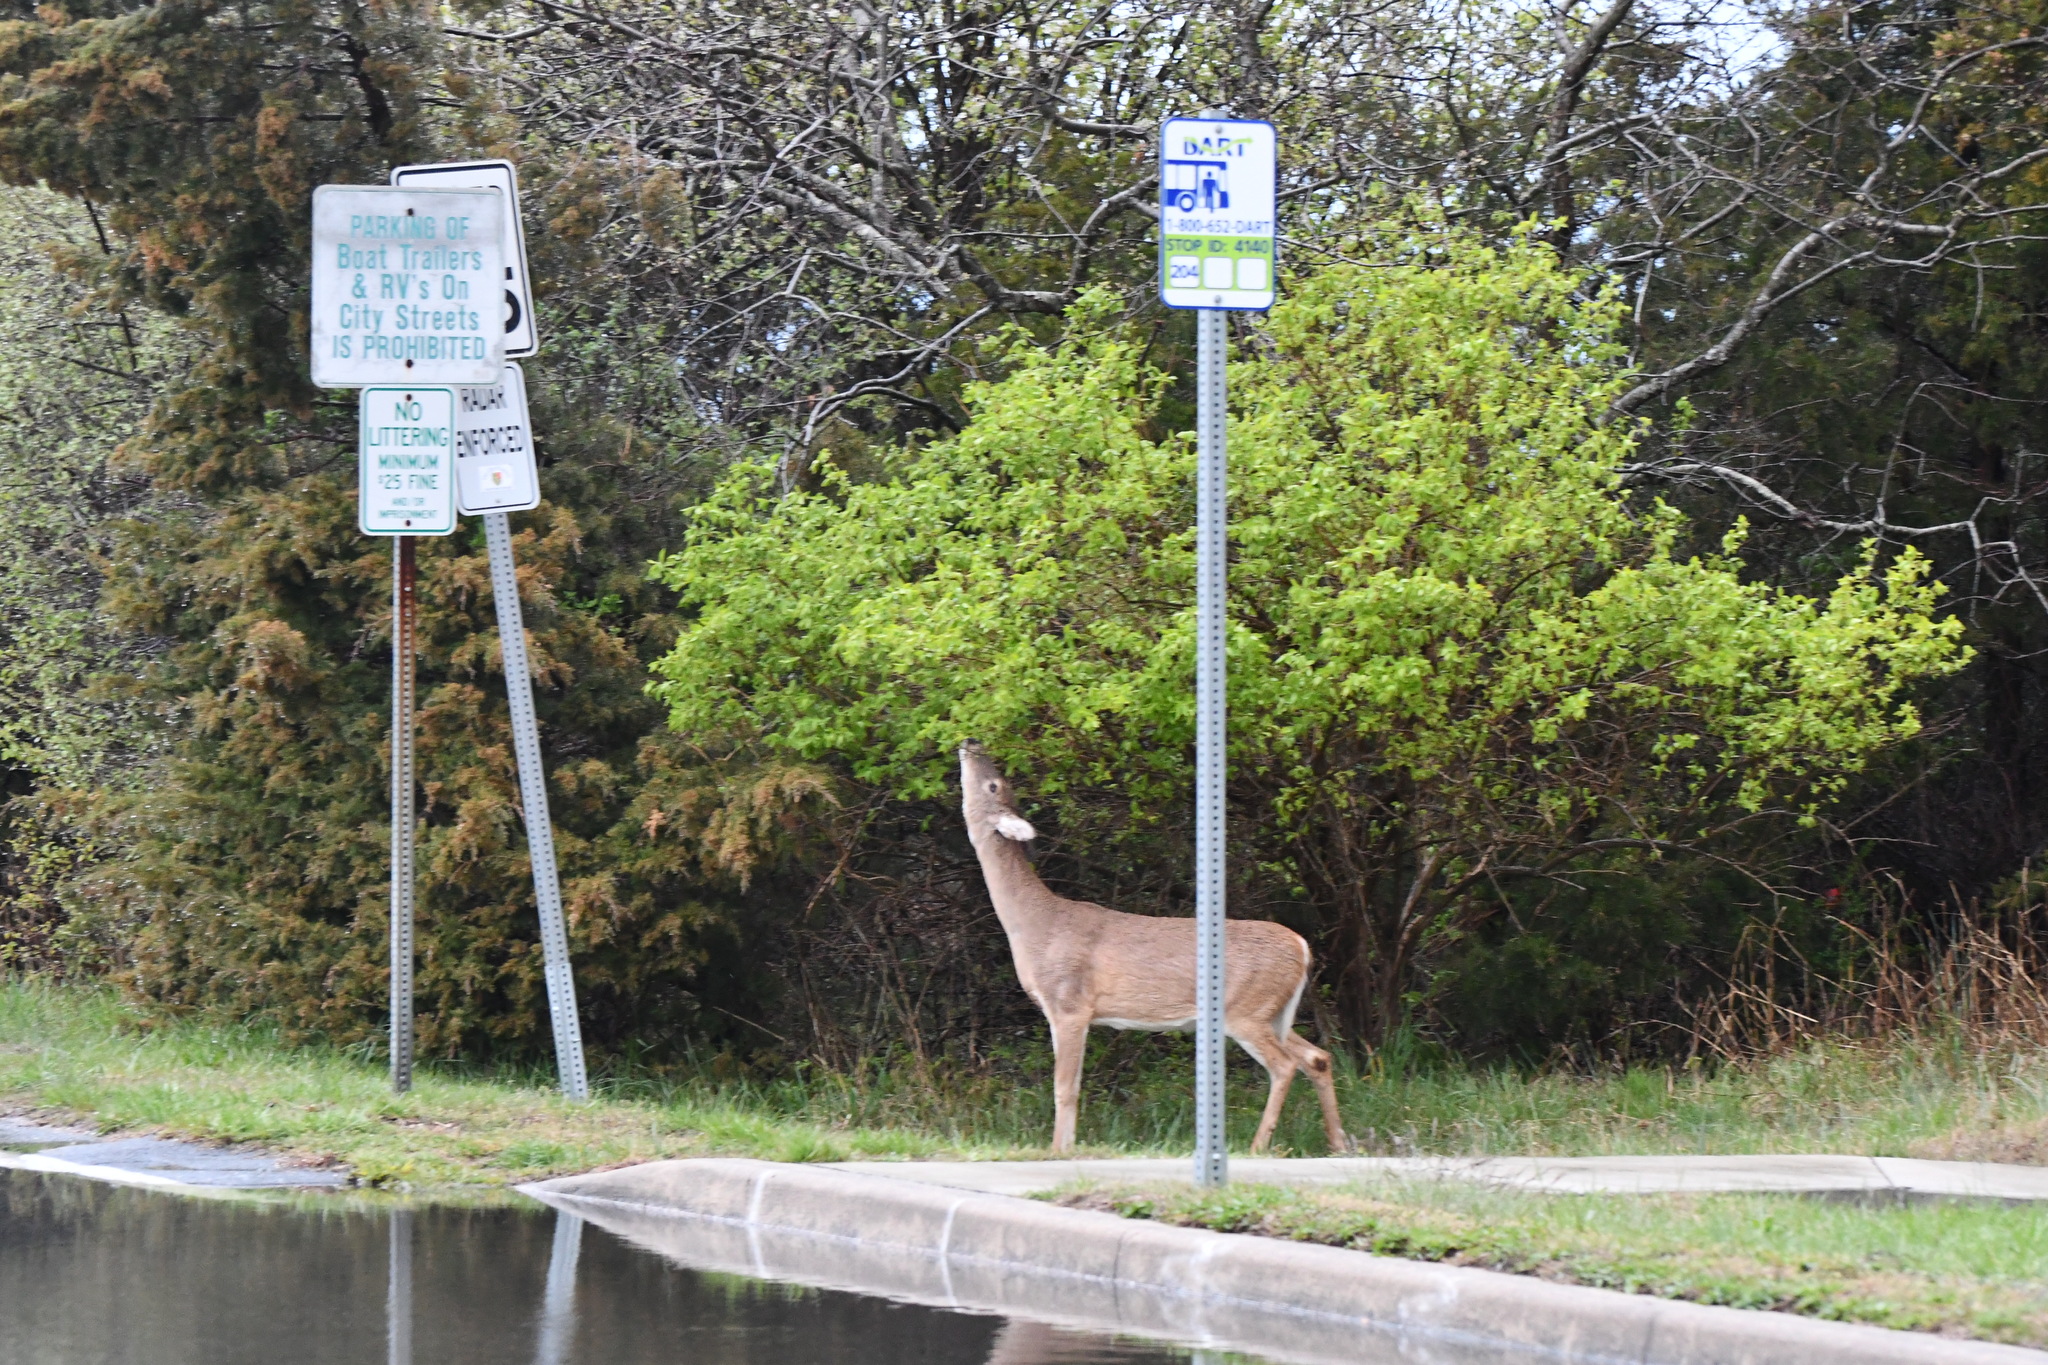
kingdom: Animalia
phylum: Chordata
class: Mammalia
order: Artiodactyla
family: Cervidae
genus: Odocoileus
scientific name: Odocoileus virginianus
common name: White-tailed deer
